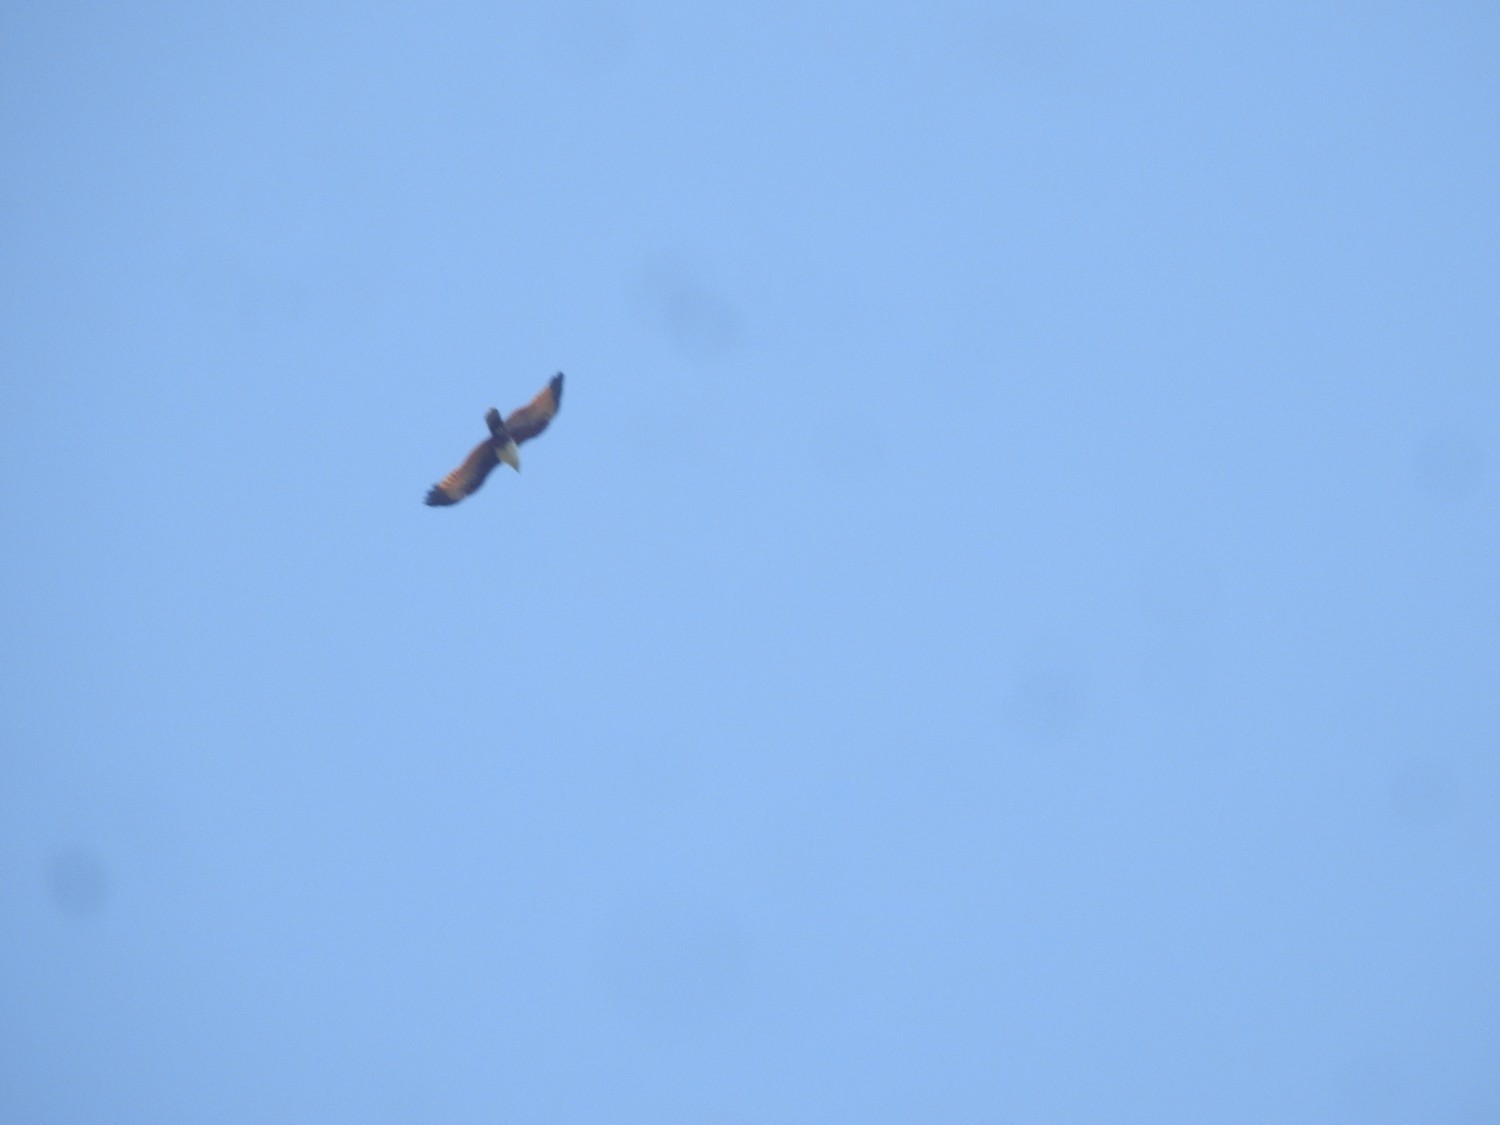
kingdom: Animalia
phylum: Chordata
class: Aves
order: Accipitriformes
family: Accipitridae
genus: Haliastur
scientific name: Haliastur indus
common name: Brahminy kite
